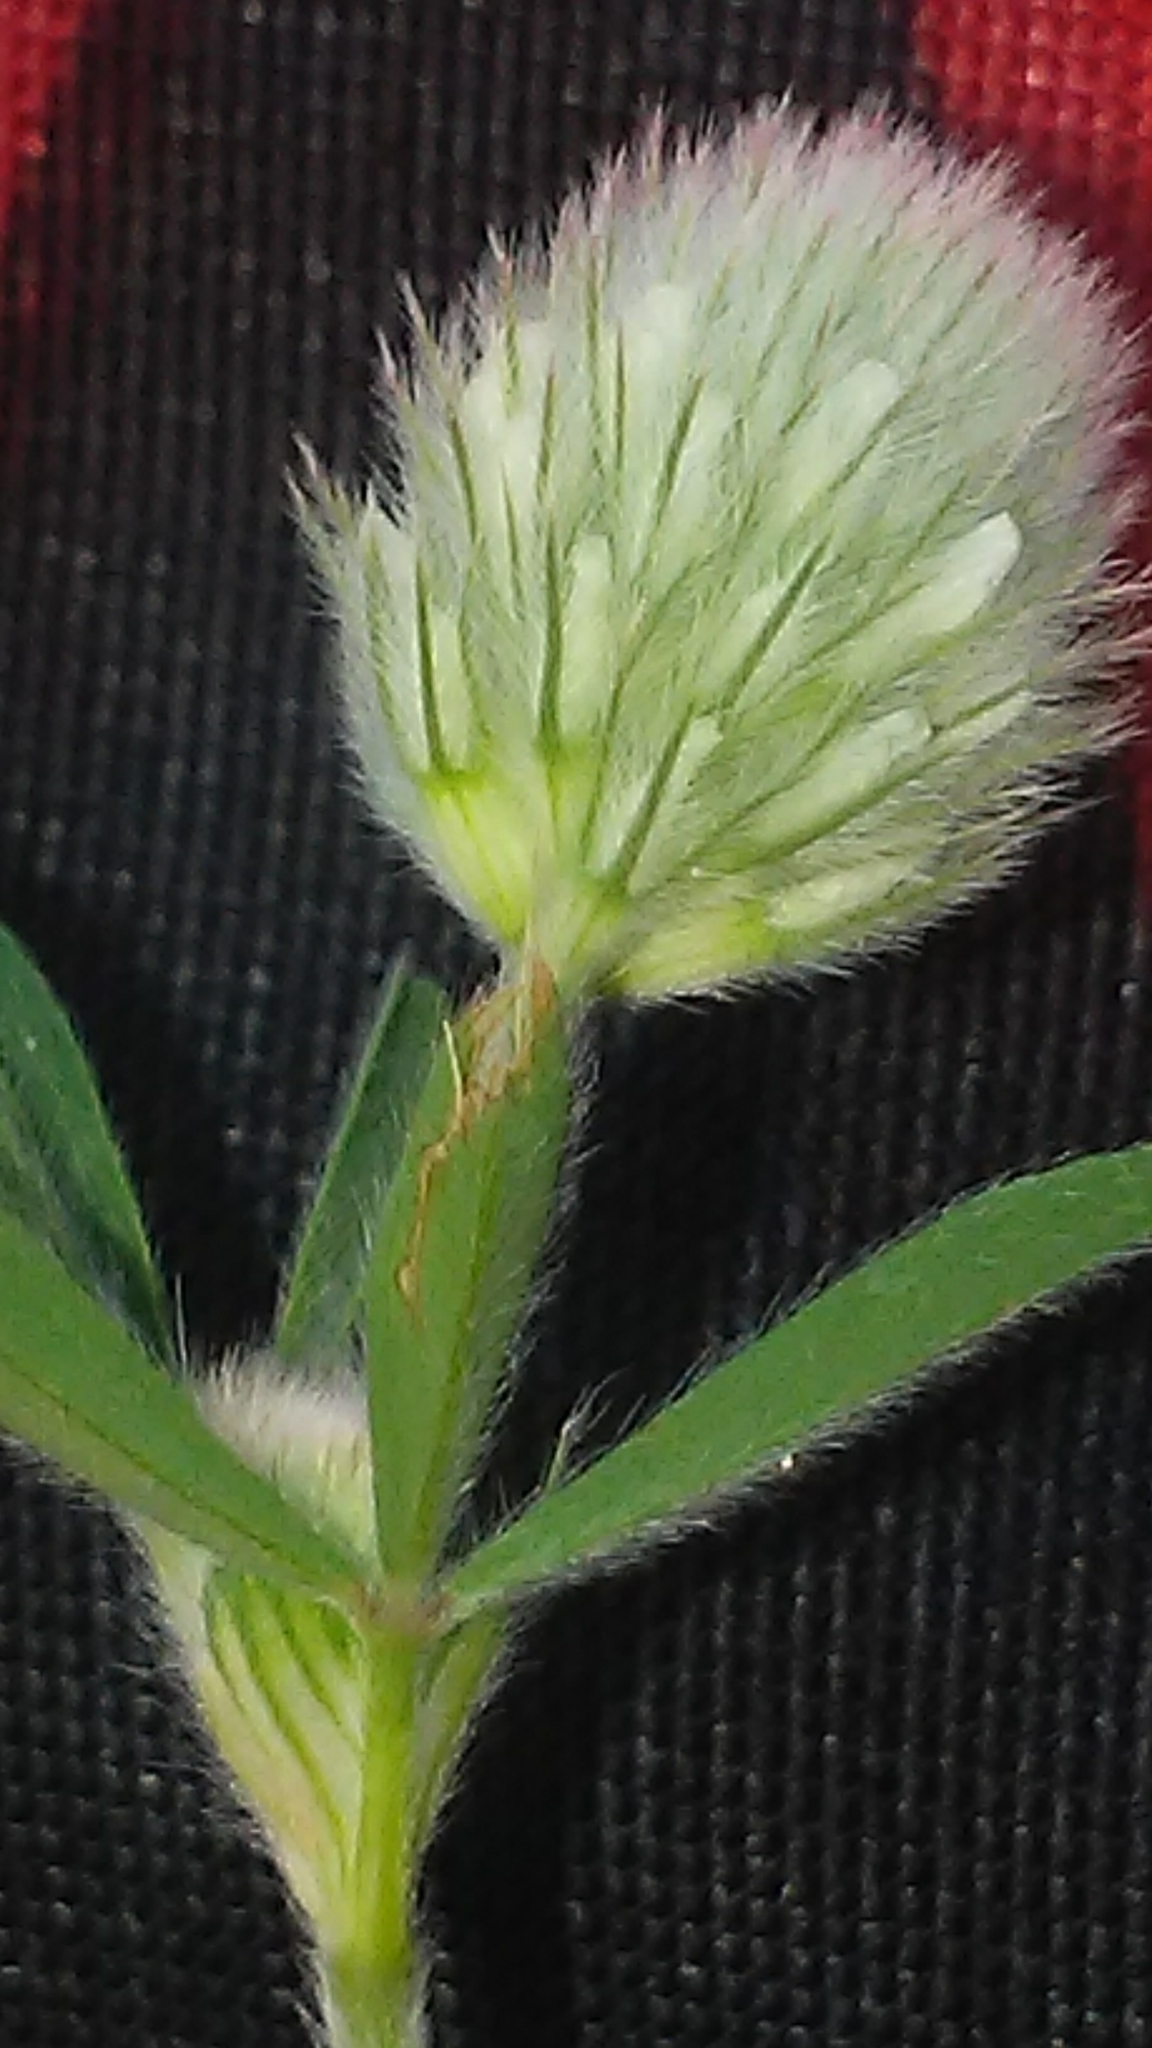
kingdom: Plantae
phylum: Tracheophyta
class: Magnoliopsida
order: Fabales
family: Fabaceae
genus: Trifolium
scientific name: Trifolium arvense
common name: Hare's-foot clover
